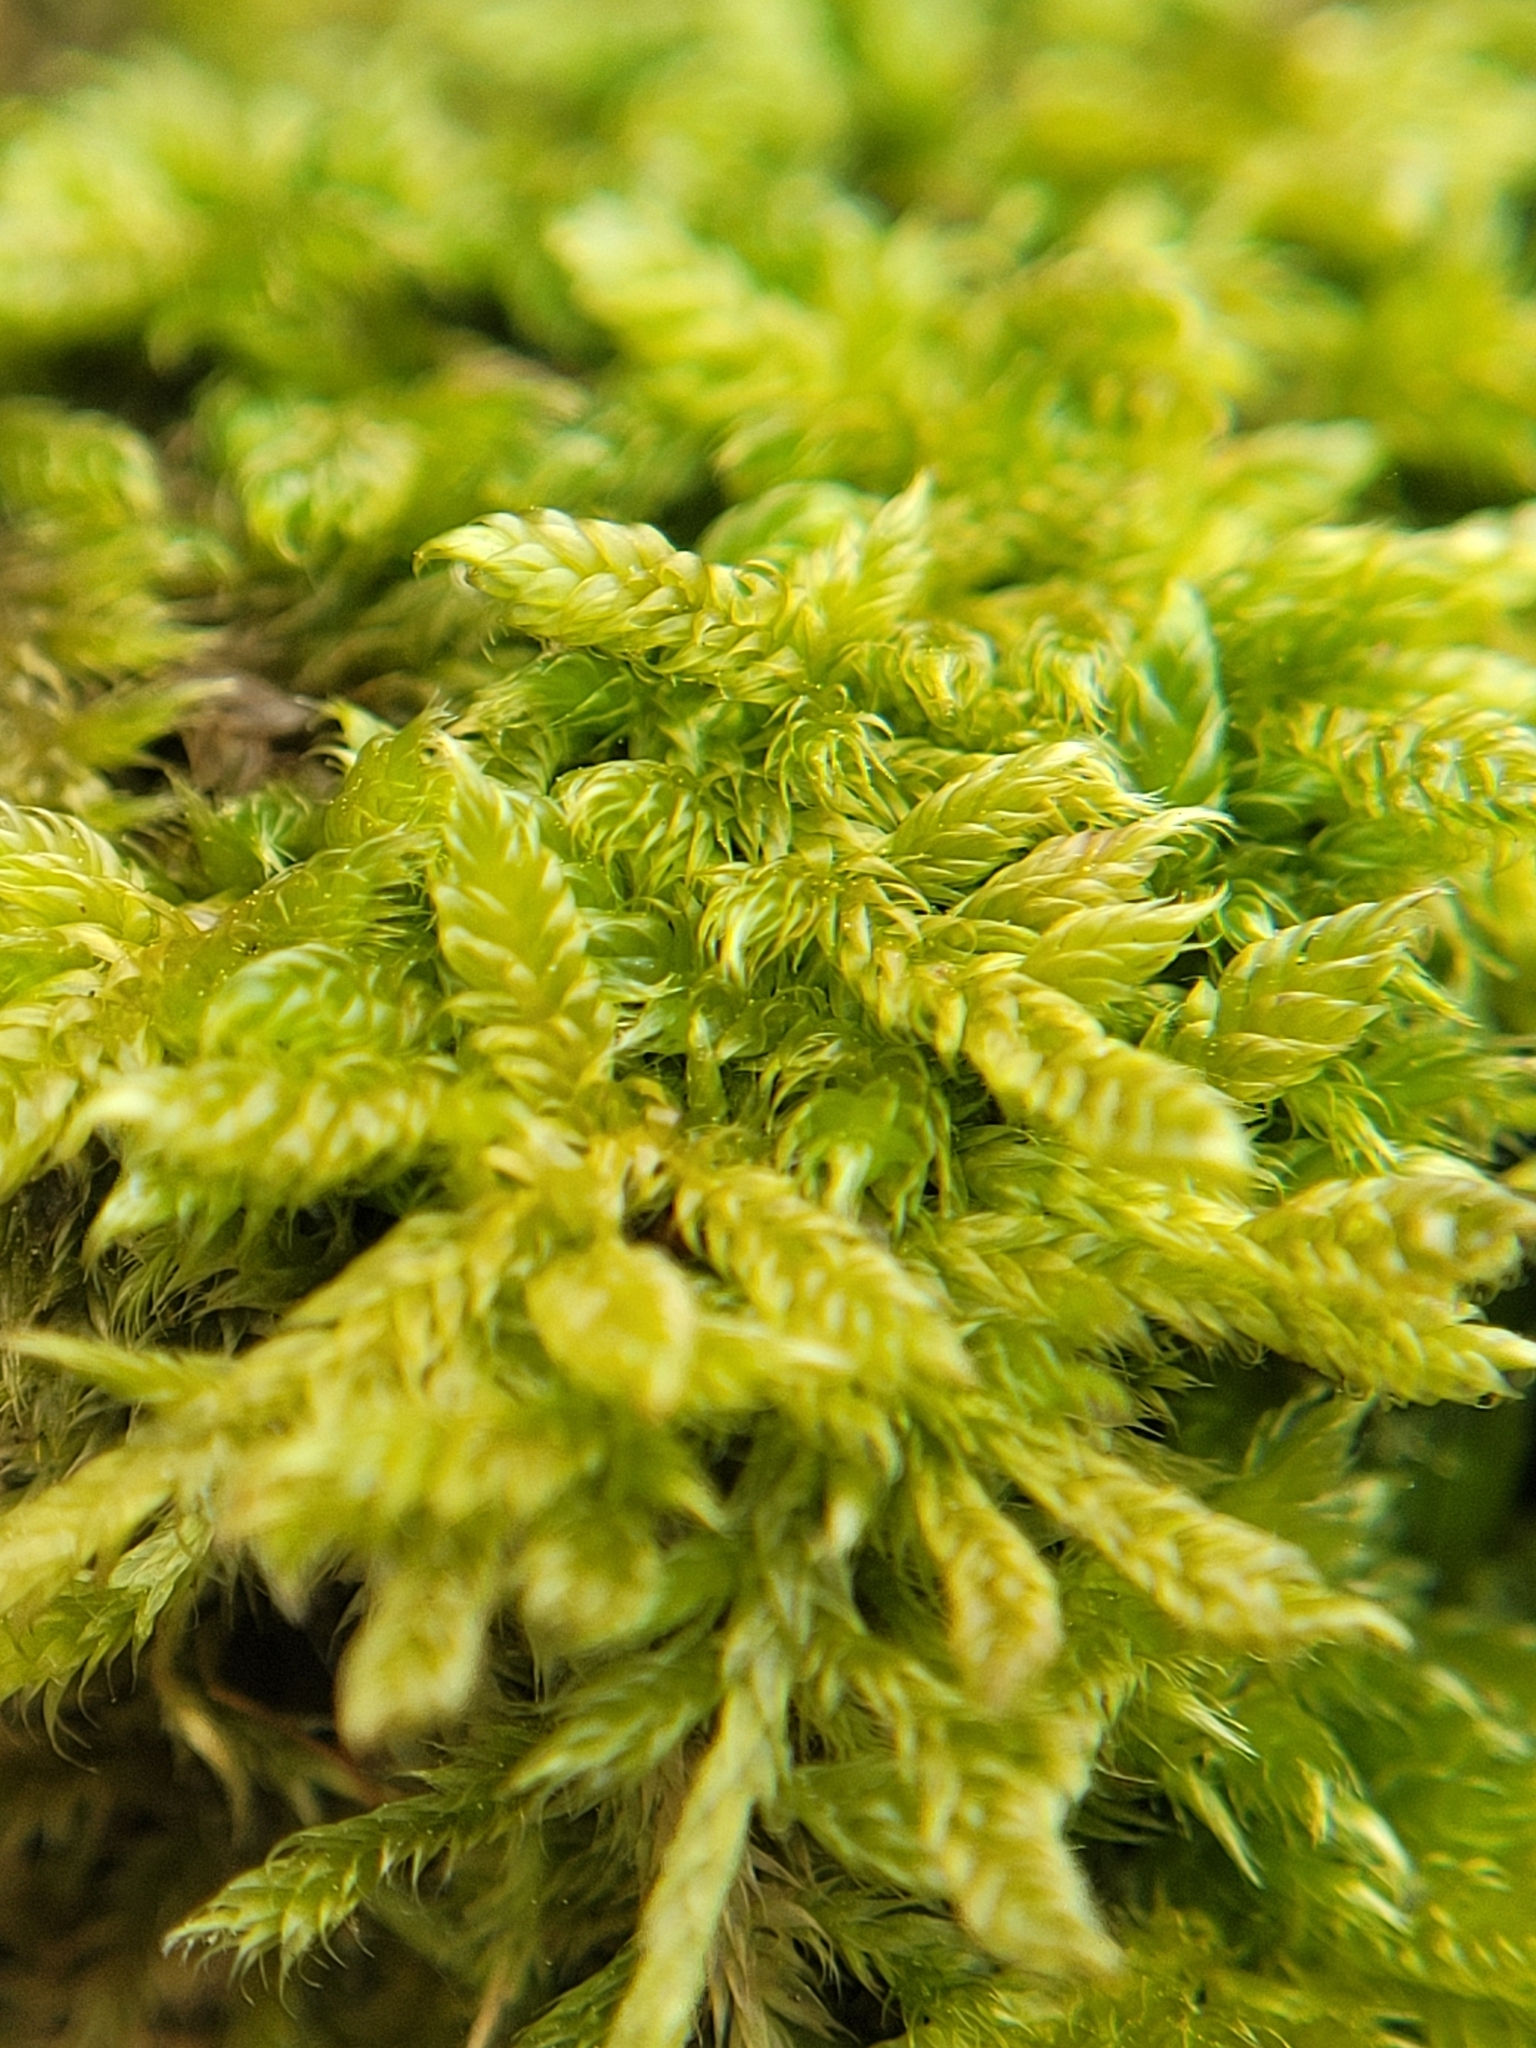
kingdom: Plantae
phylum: Bryophyta
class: Bryopsida
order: Hypnales
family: Hypnaceae
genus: Hypnum
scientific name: Hypnum cupressiforme
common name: Cypress-leaved plait-moss
